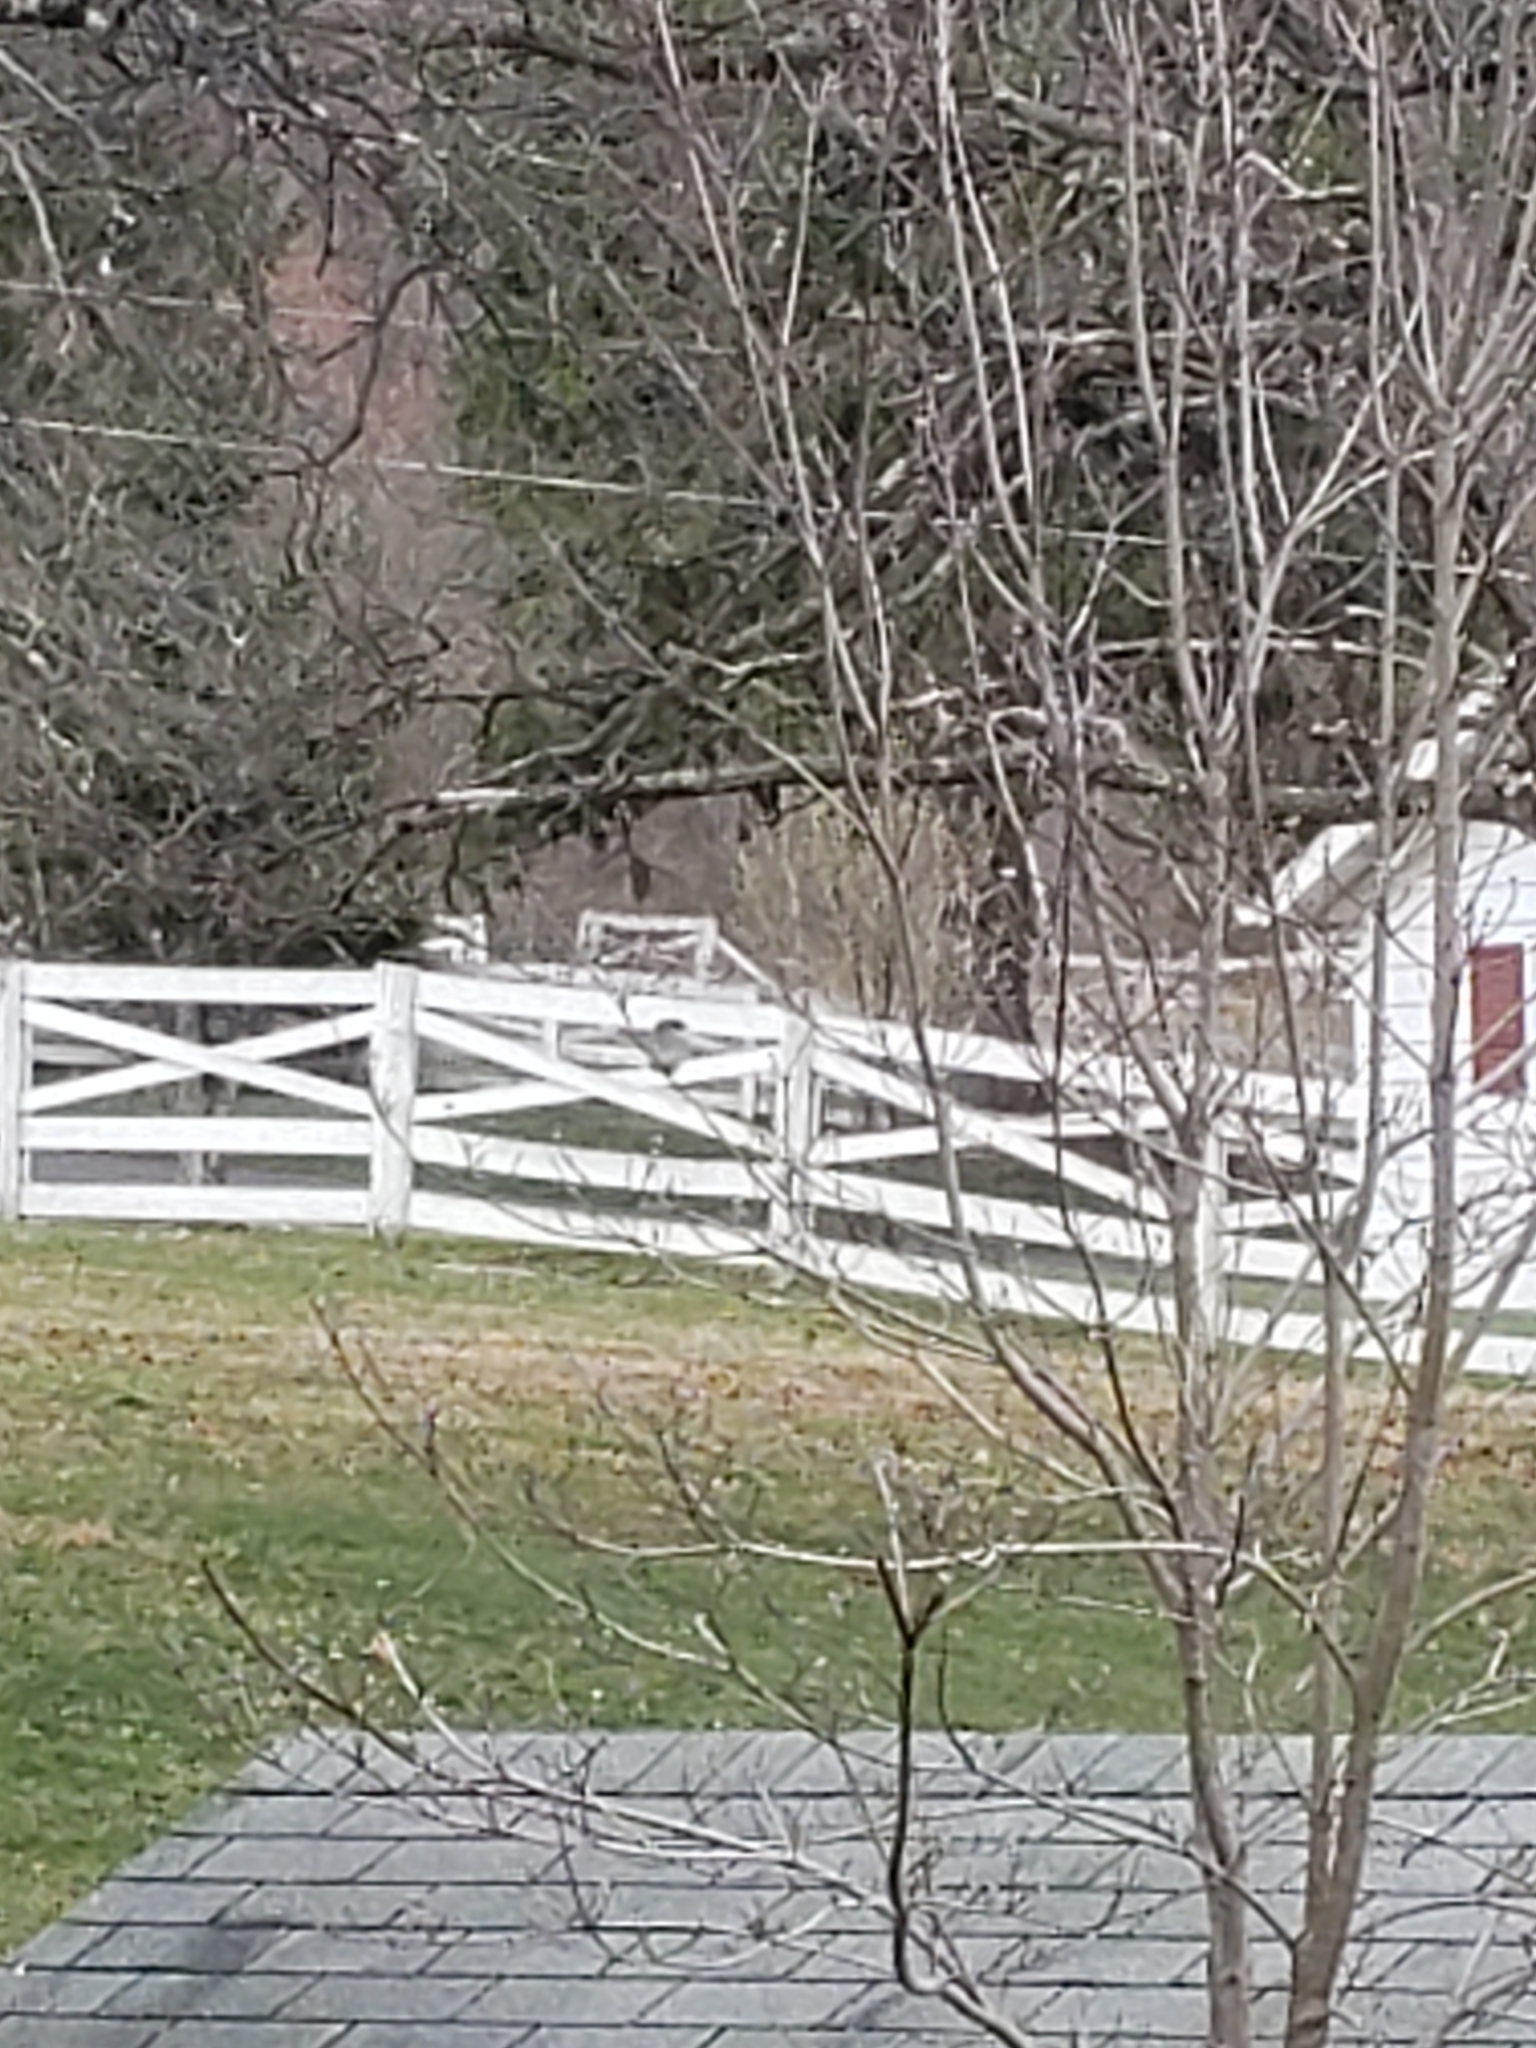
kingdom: Animalia
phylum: Chordata
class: Aves
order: Passeriformes
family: Tyrannidae
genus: Sayornis
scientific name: Sayornis phoebe
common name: Eastern phoebe
